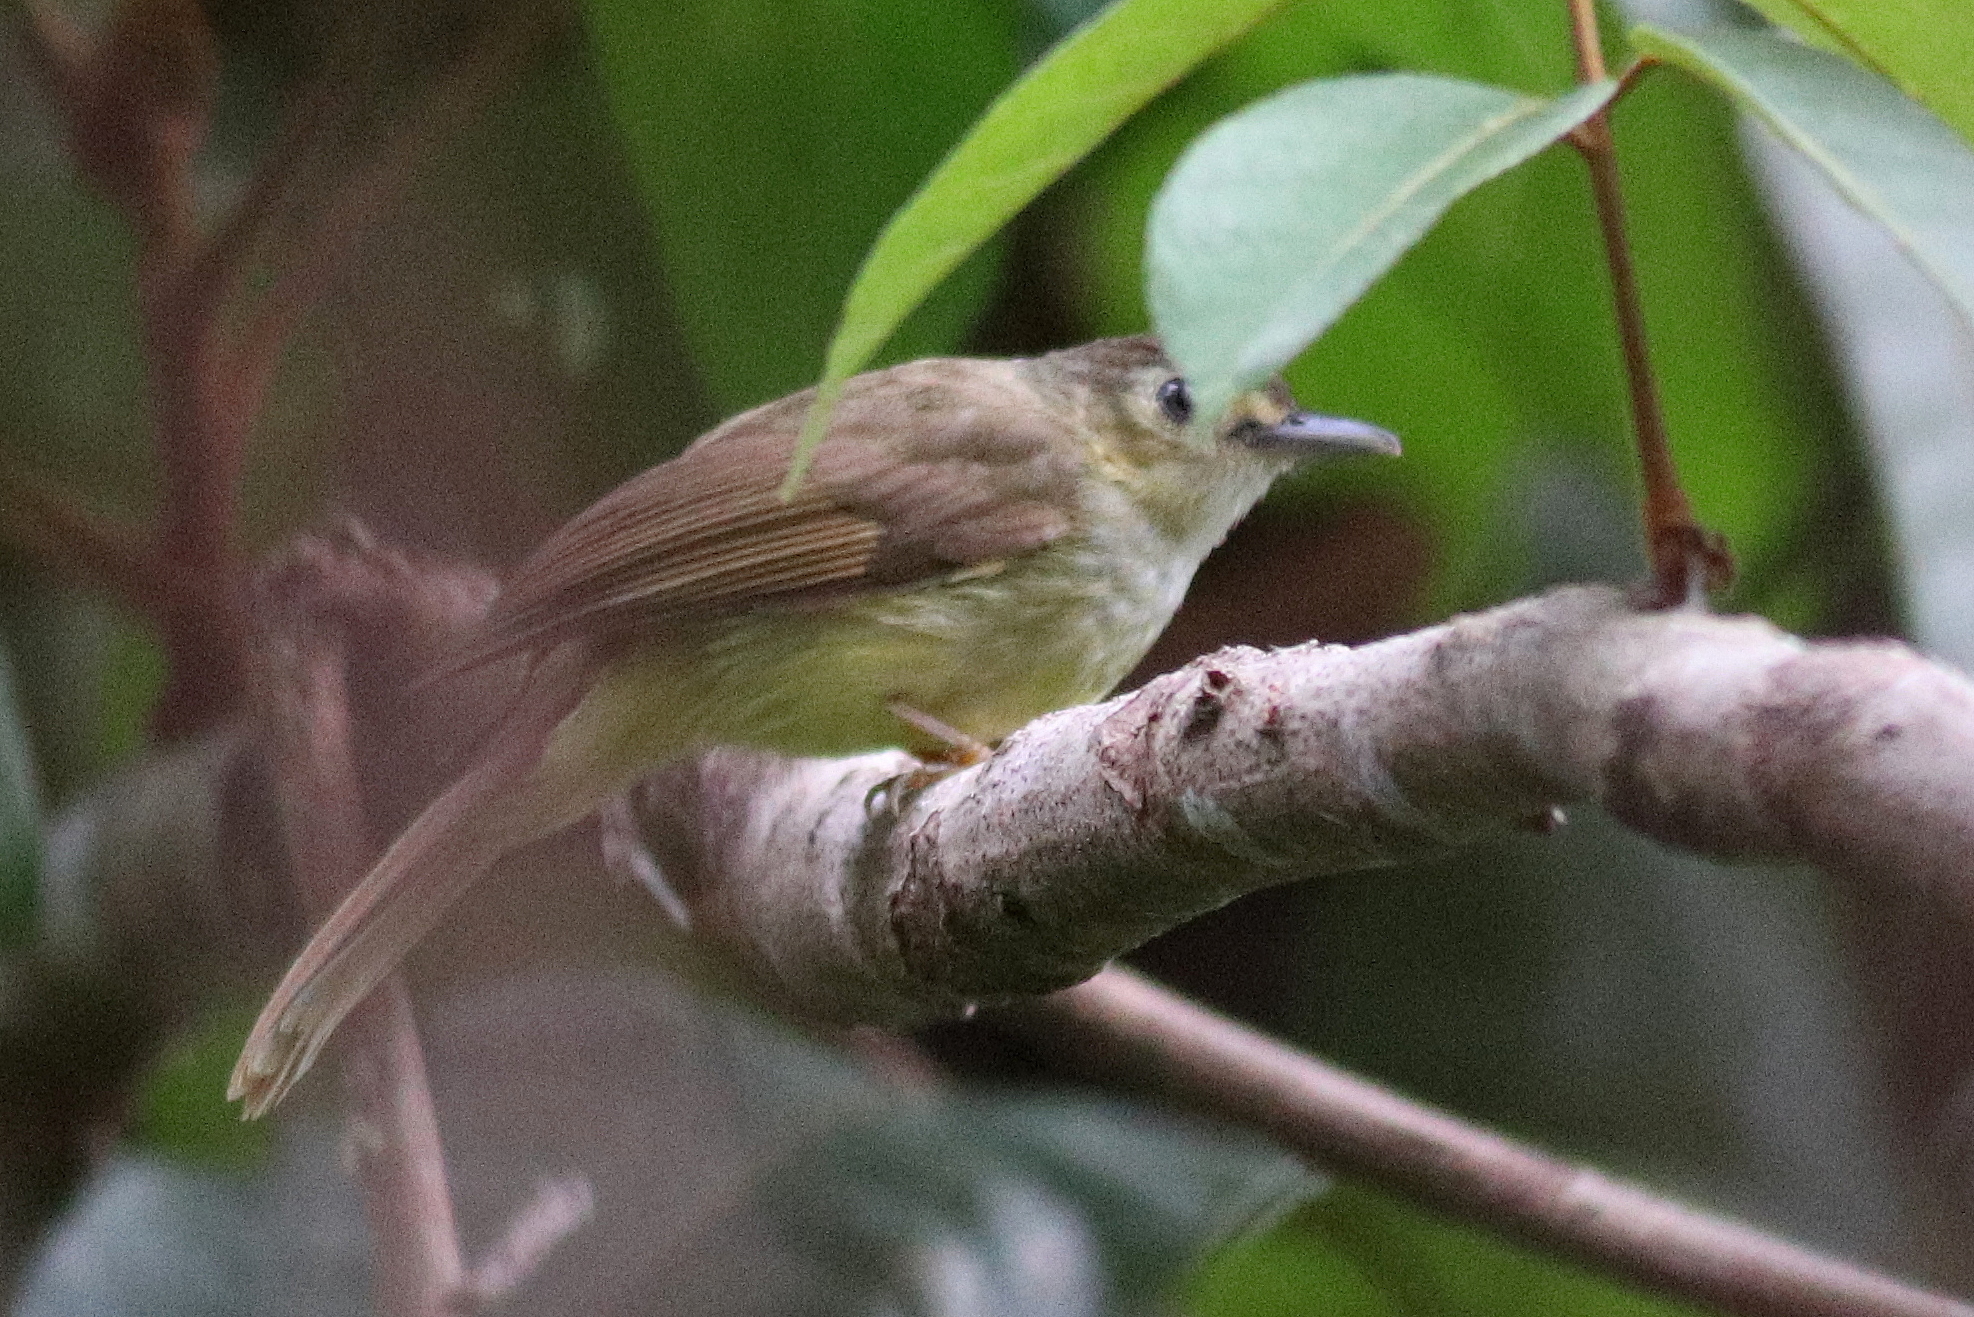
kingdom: Animalia
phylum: Chordata
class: Aves
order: Passeriformes
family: Pycnonotidae
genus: Tricholestes
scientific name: Tricholestes criniger
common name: Hairy-backed bulbul
